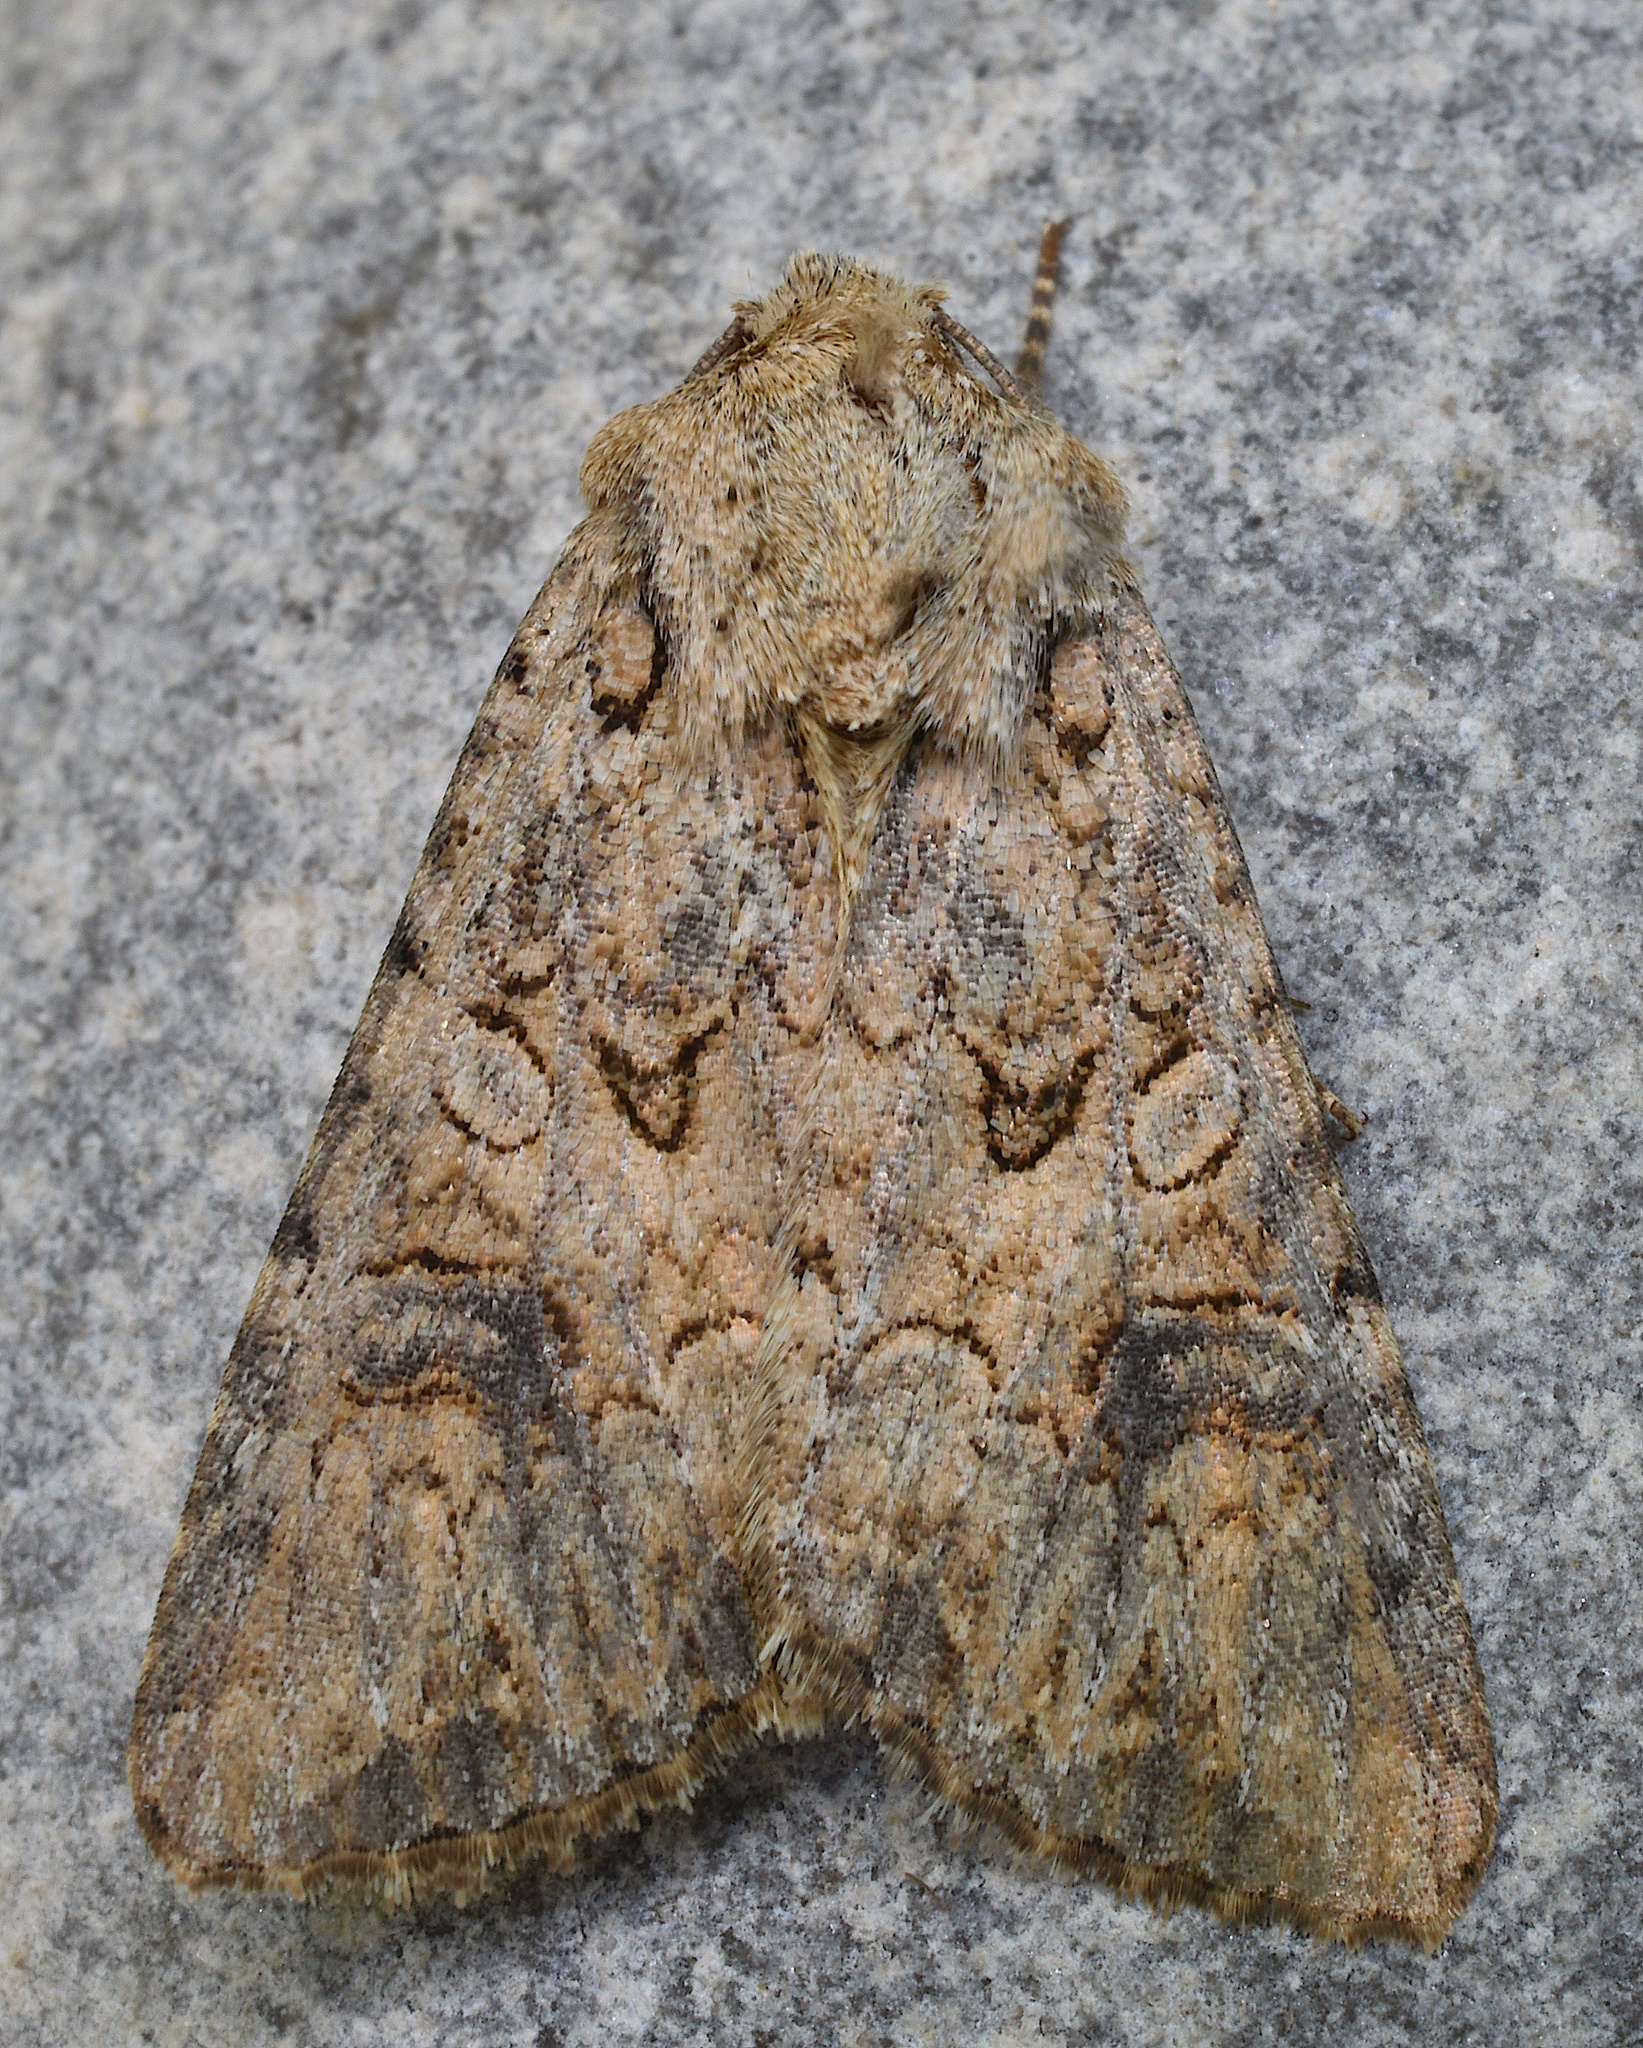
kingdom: Animalia
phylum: Arthropoda
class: Insecta
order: Lepidoptera
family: Noctuidae
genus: Anarta
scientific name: Anarta trifolii
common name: Clover cutworm moth
